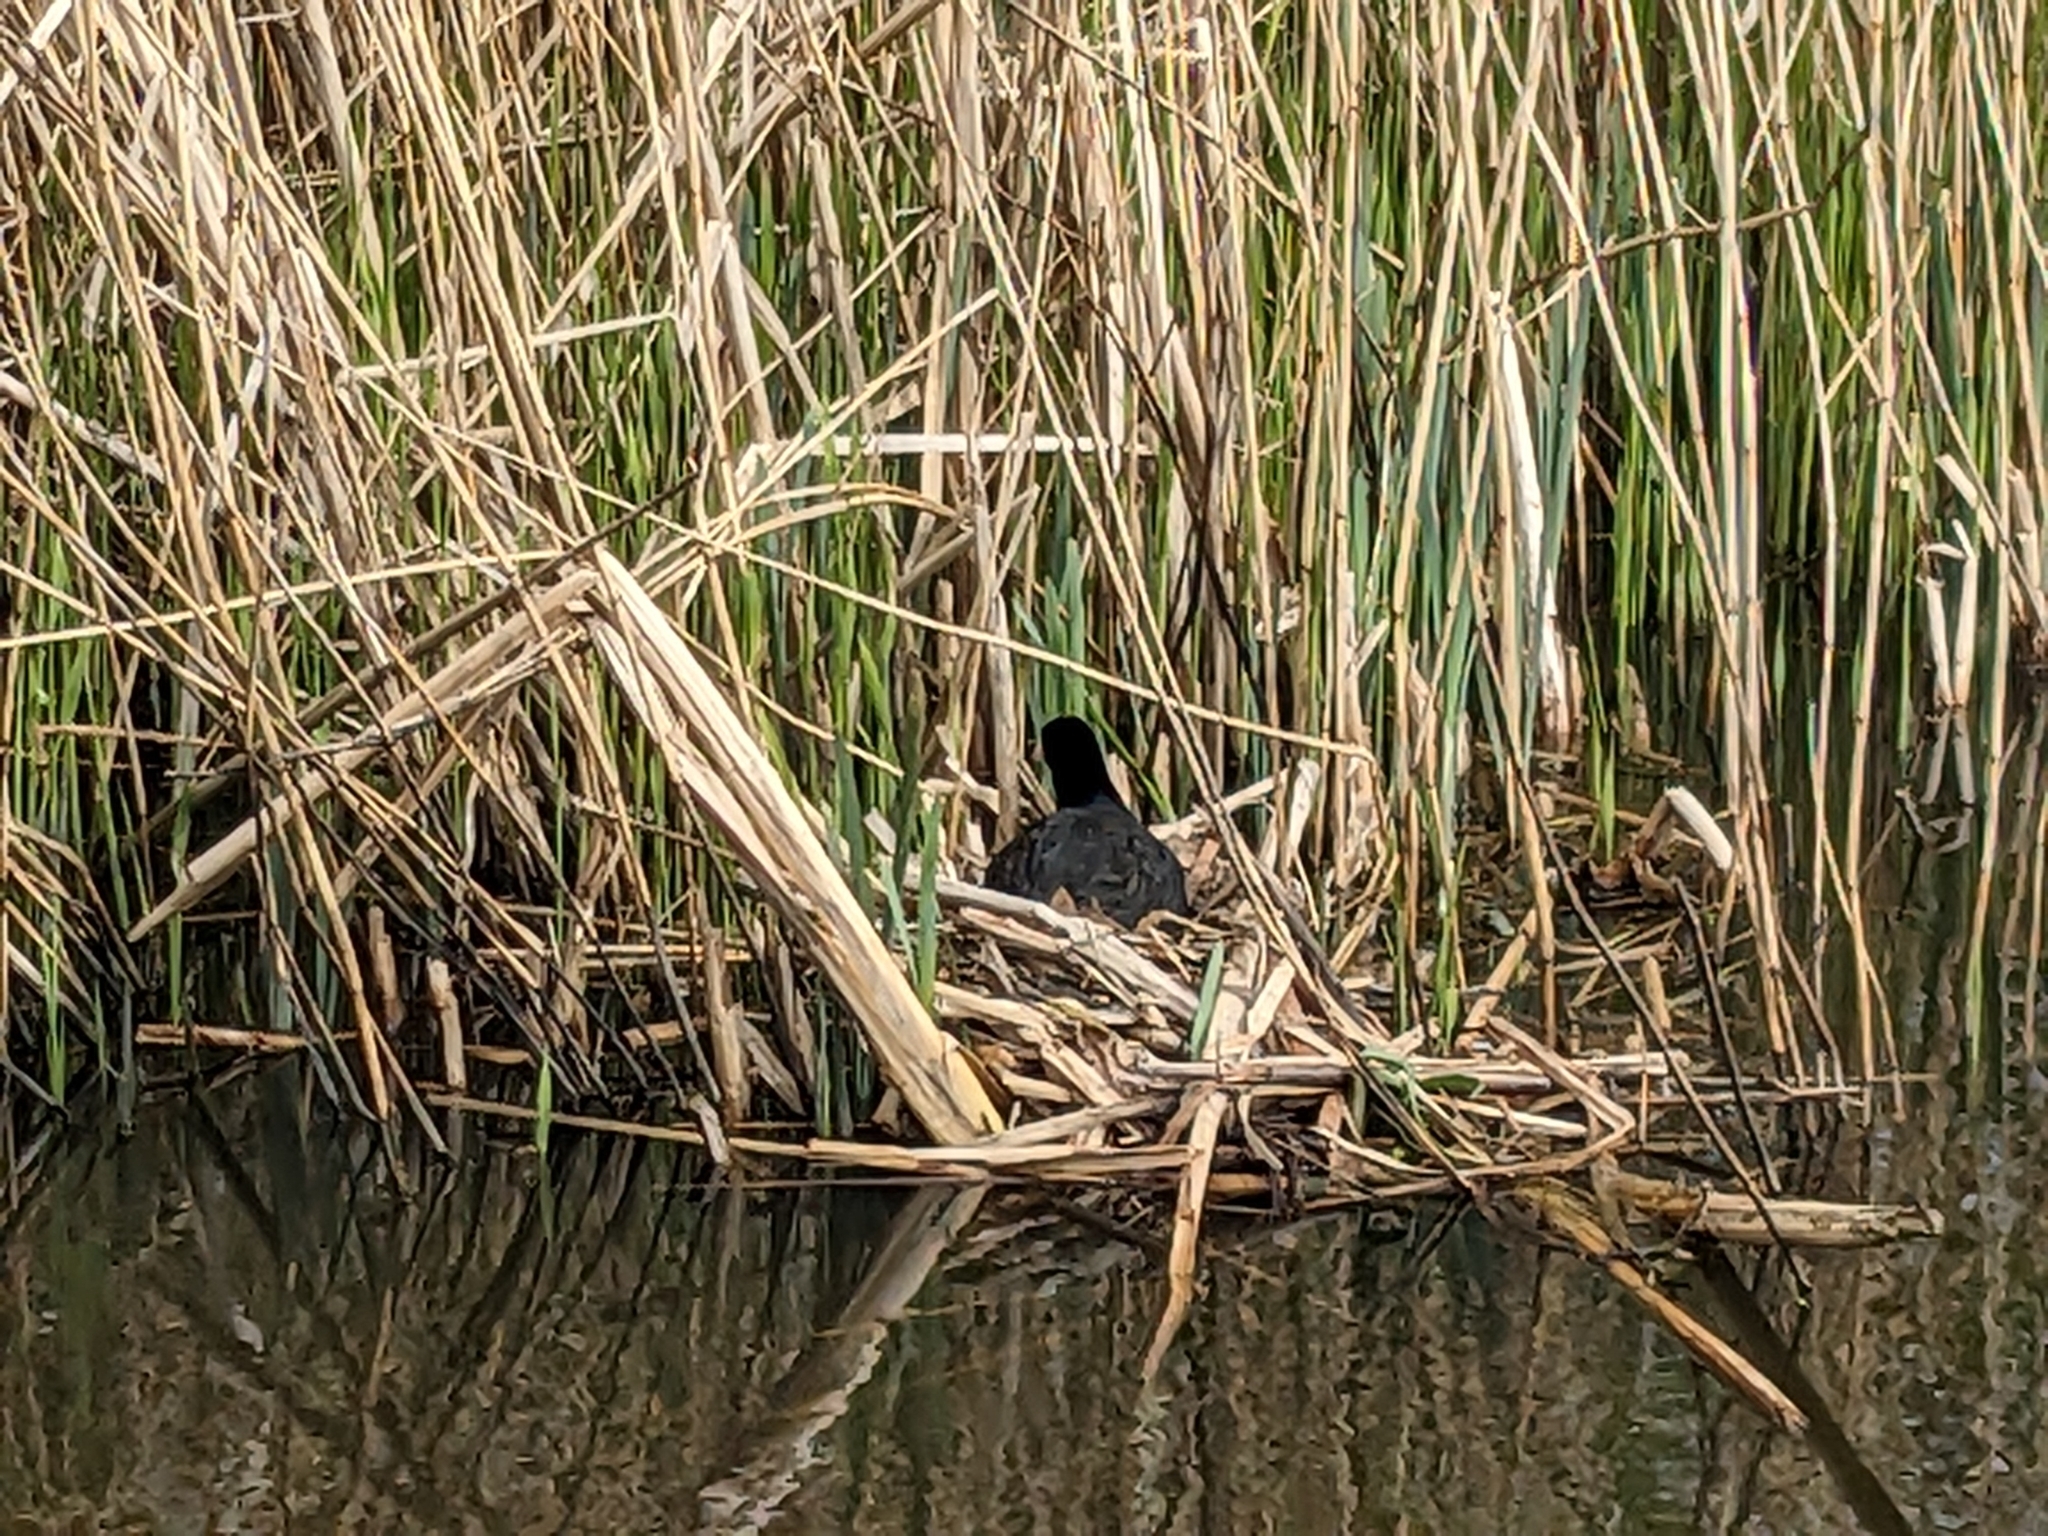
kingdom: Animalia
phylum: Chordata
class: Aves
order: Gruiformes
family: Rallidae
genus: Fulica
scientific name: Fulica atra
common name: Eurasian coot
